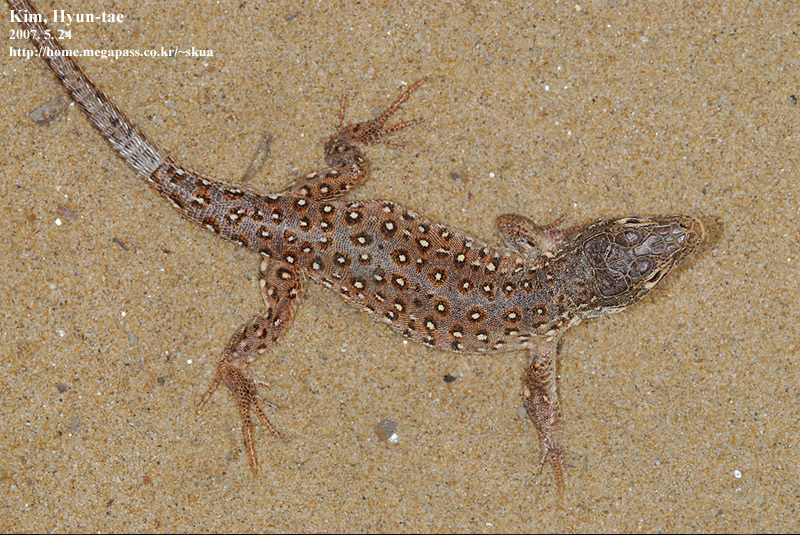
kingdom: Animalia
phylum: Chordata
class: Squamata
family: Lacertidae
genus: Eremias
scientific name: Eremias argus
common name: Mongolia racerunner
